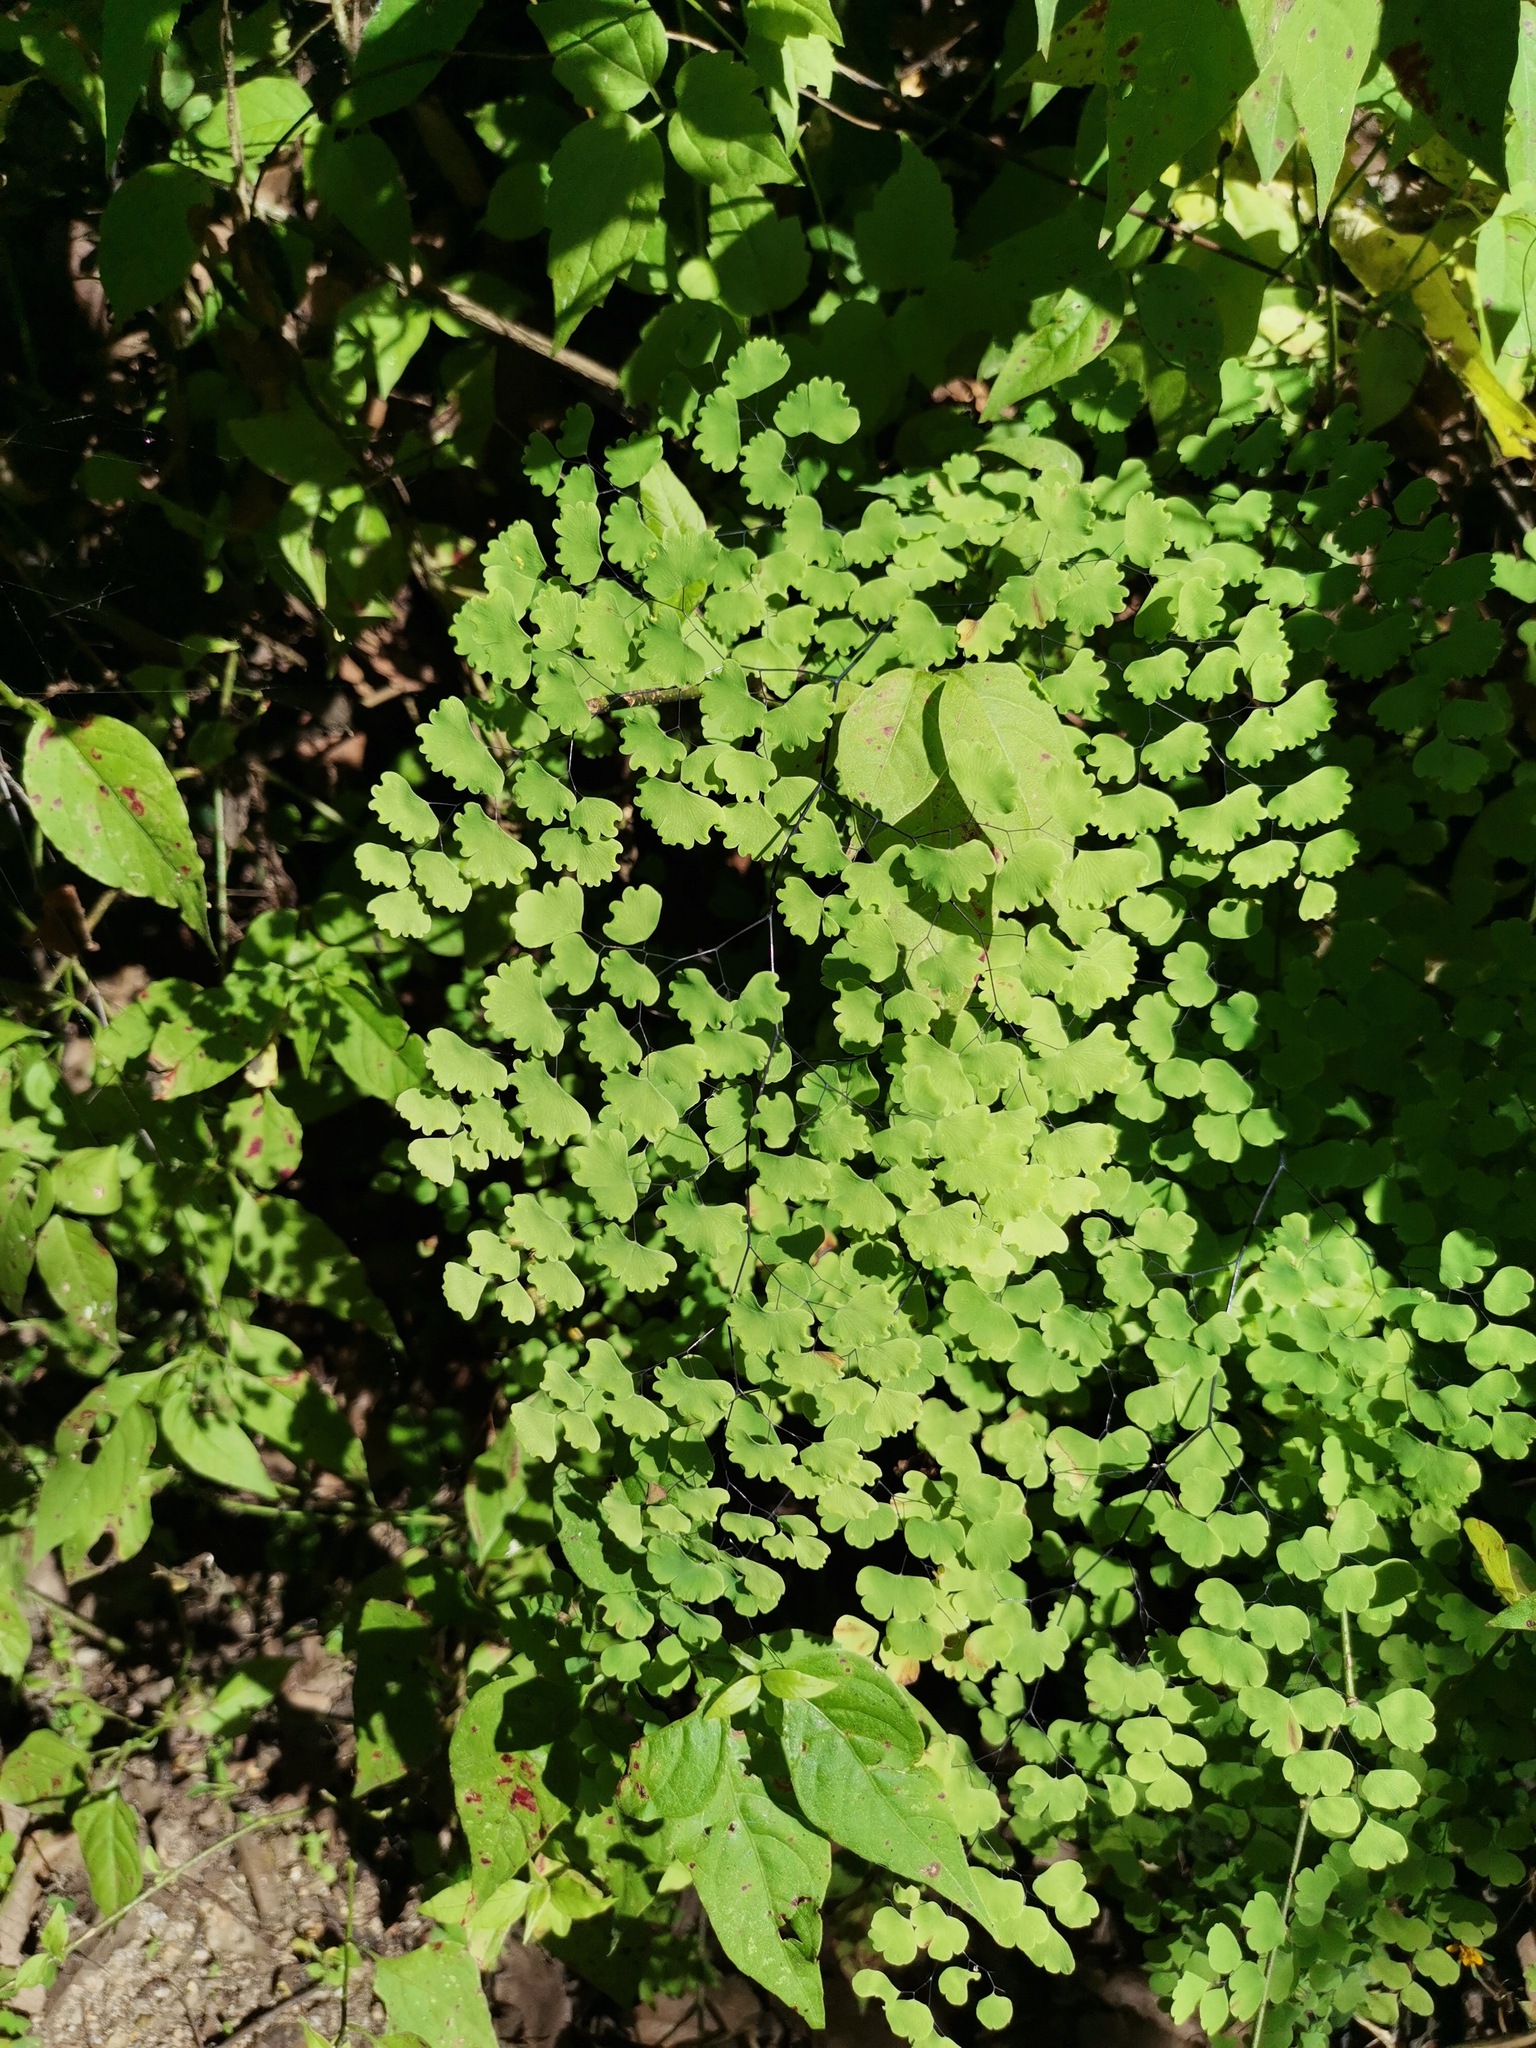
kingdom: Plantae
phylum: Tracheophyta
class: Polypodiopsida
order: Polypodiales
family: Pteridaceae
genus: Adiantum
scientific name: Adiantum poiretii
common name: Mexican maidenhair
